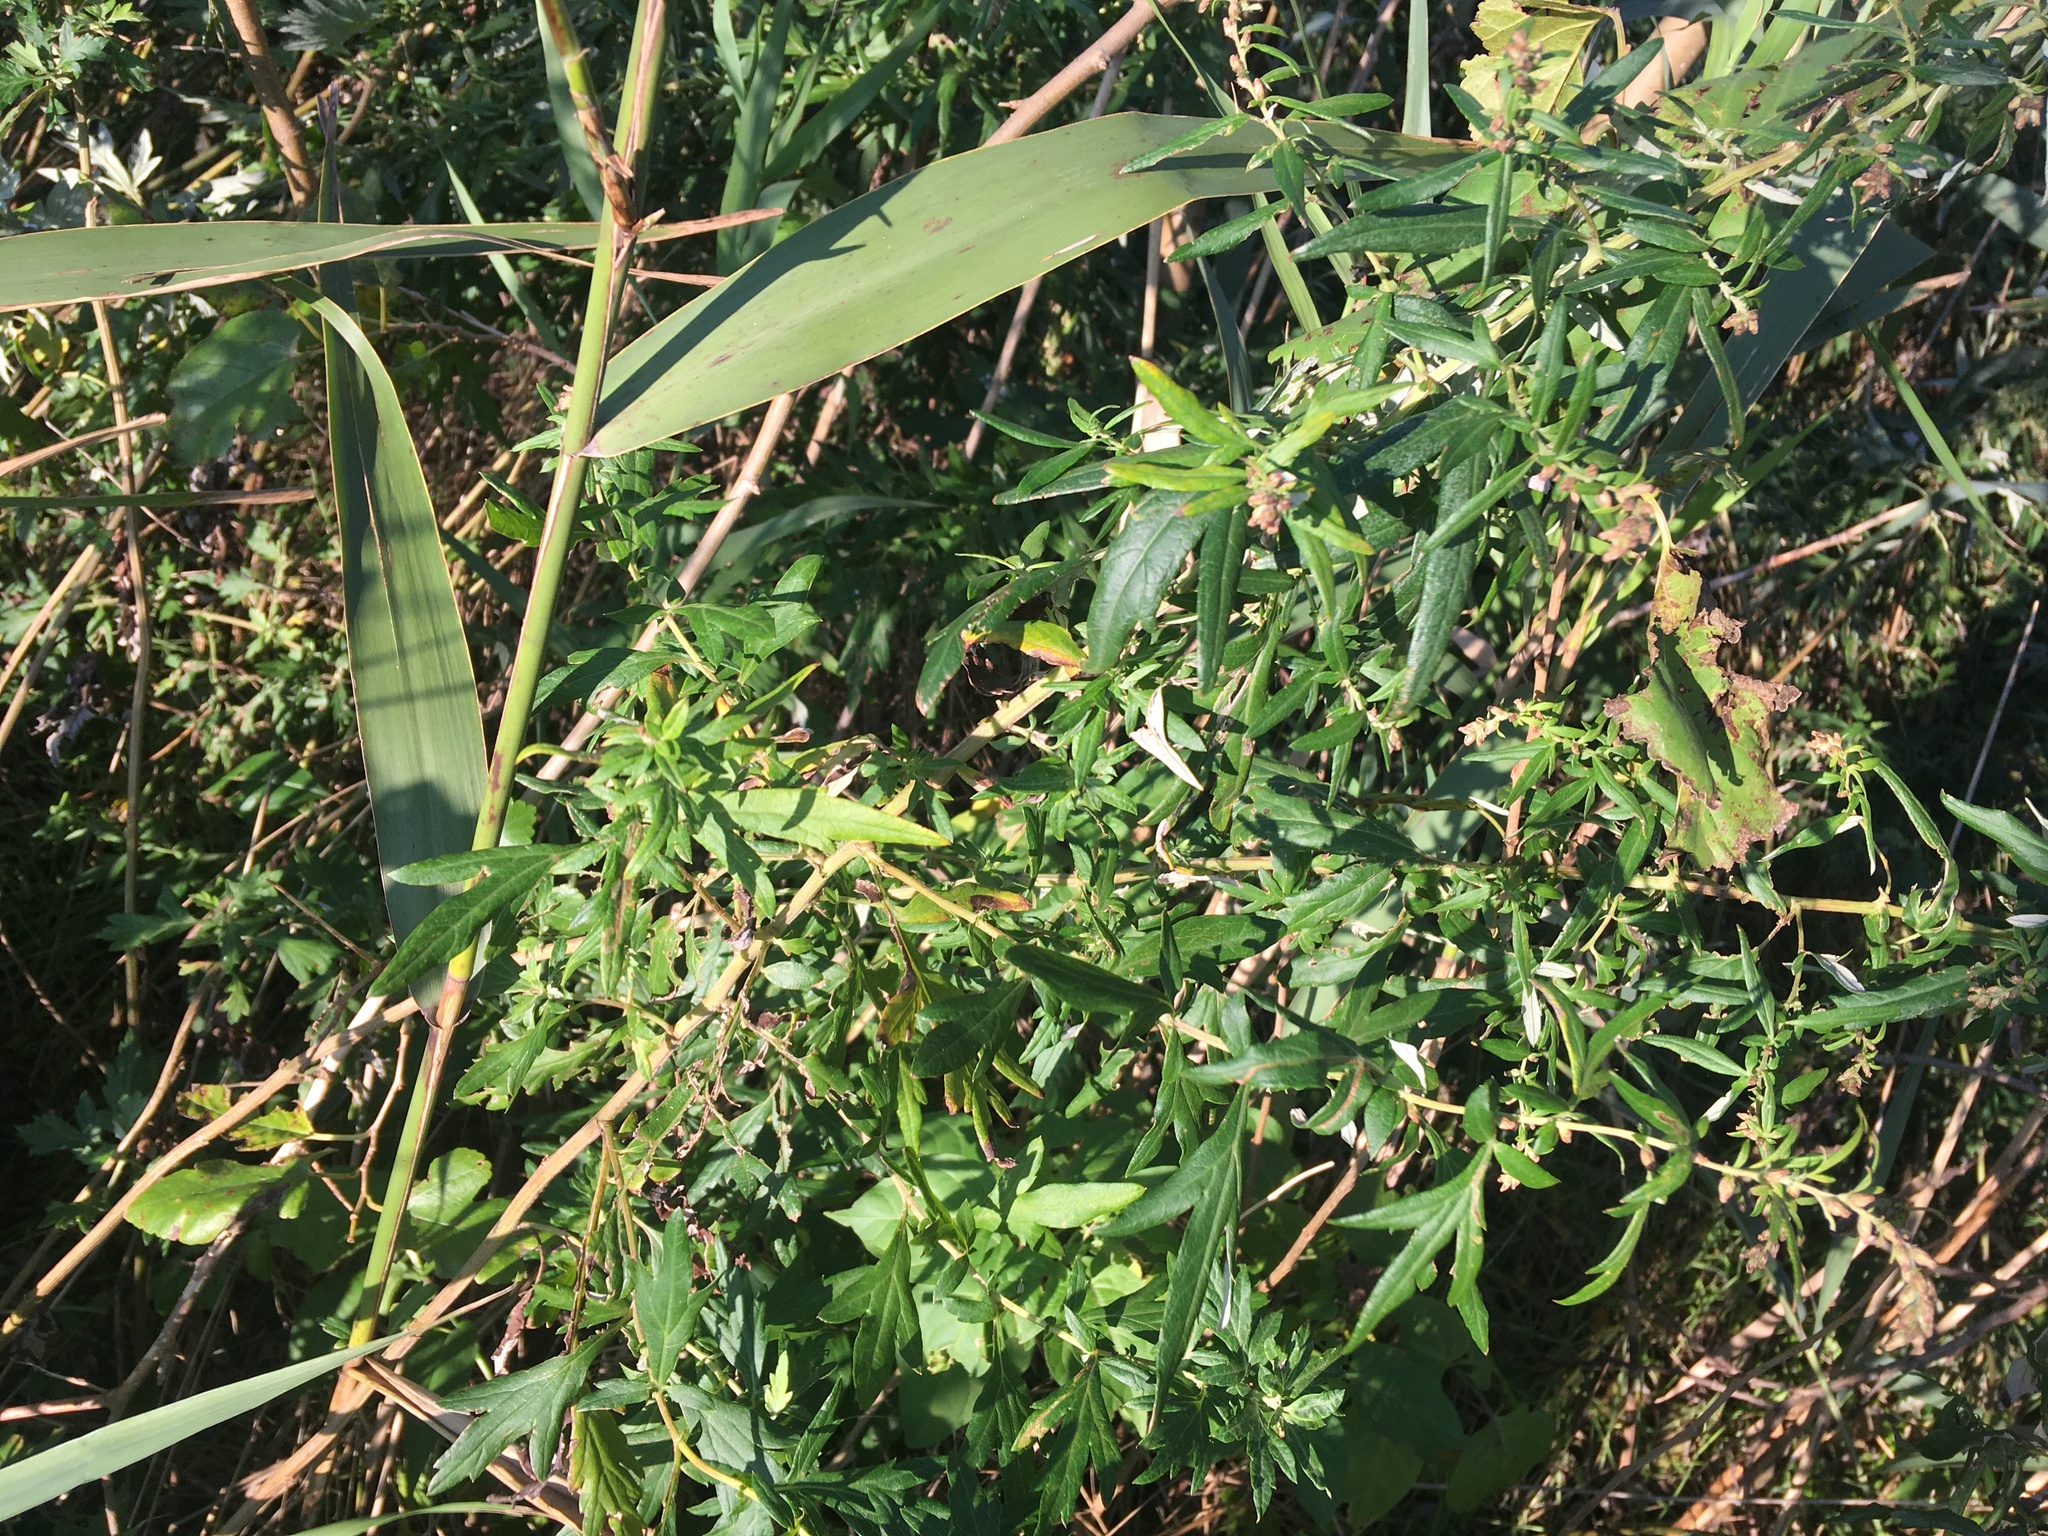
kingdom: Plantae
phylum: Tracheophyta
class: Magnoliopsida
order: Asterales
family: Asteraceae
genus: Artemisia
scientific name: Artemisia vulgaris
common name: Mugwort
